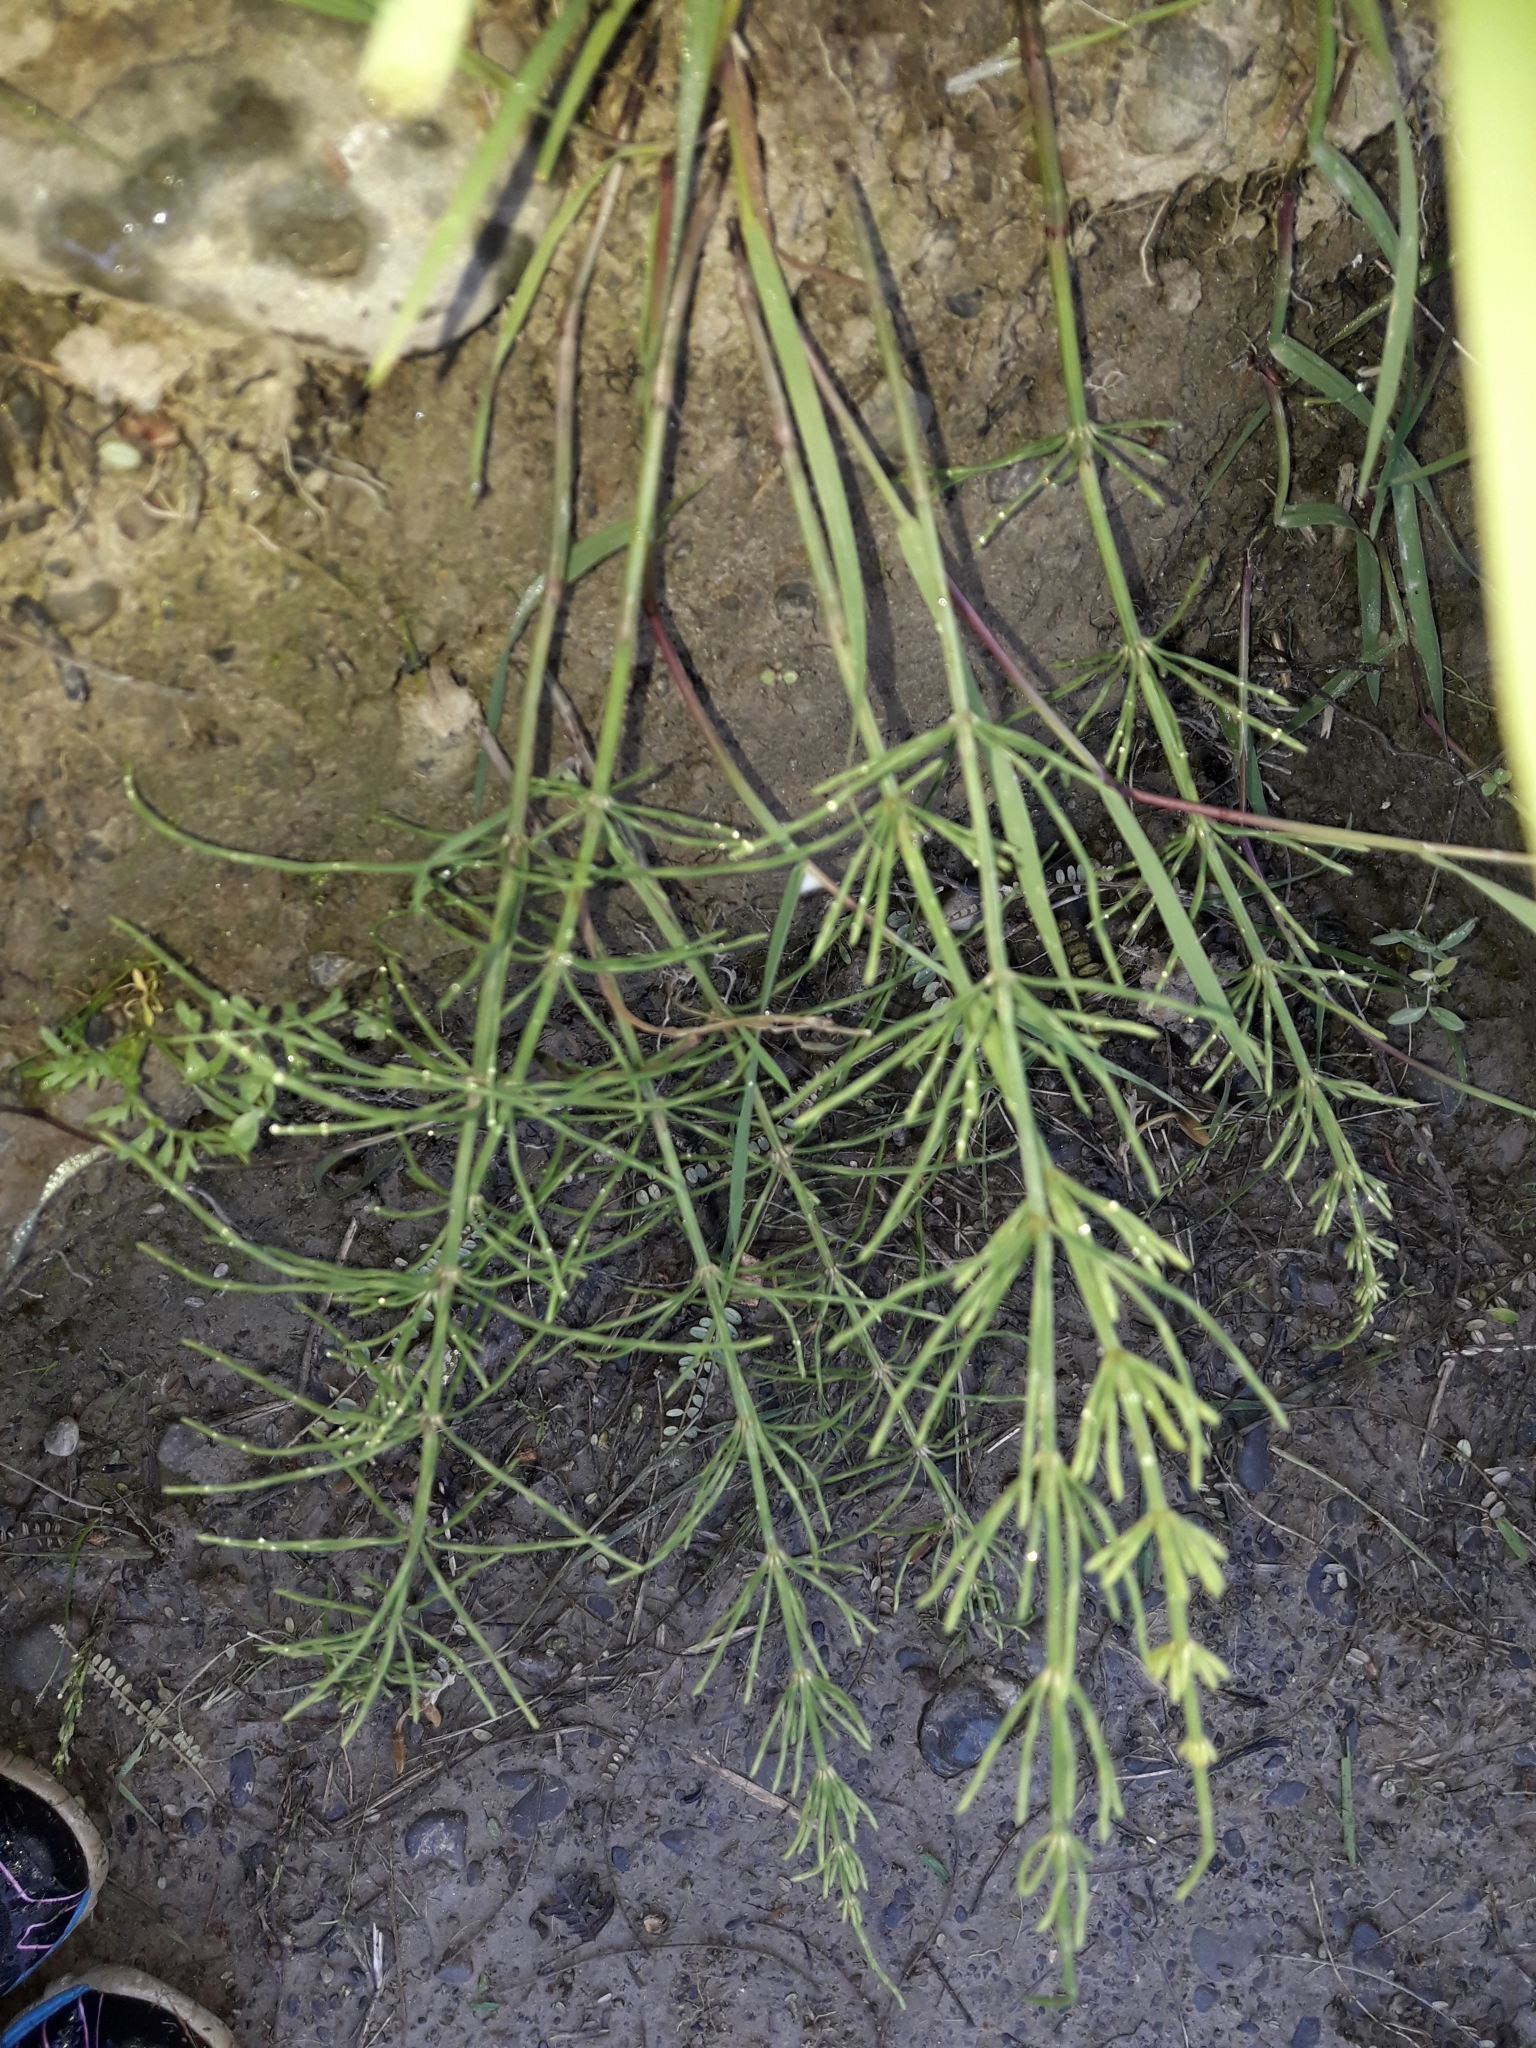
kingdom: Plantae
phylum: Tracheophyta
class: Polypodiopsida
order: Equisetales
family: Equisetaceae
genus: Equisetum
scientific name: Equisetum arvense
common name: Field horsetail
